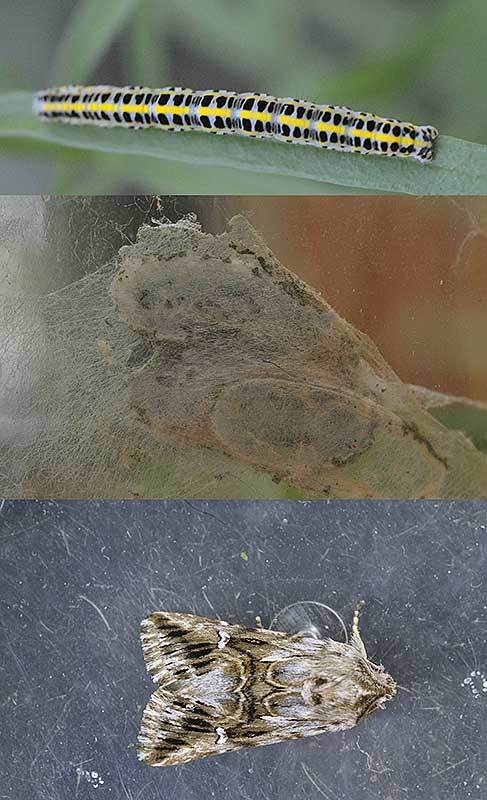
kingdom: Animalia
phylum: Arthropoda
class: Insecta
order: Lepidoptera
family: Noctuidae
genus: Calophasia
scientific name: Calophasia lunula
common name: Toadflax brocade
